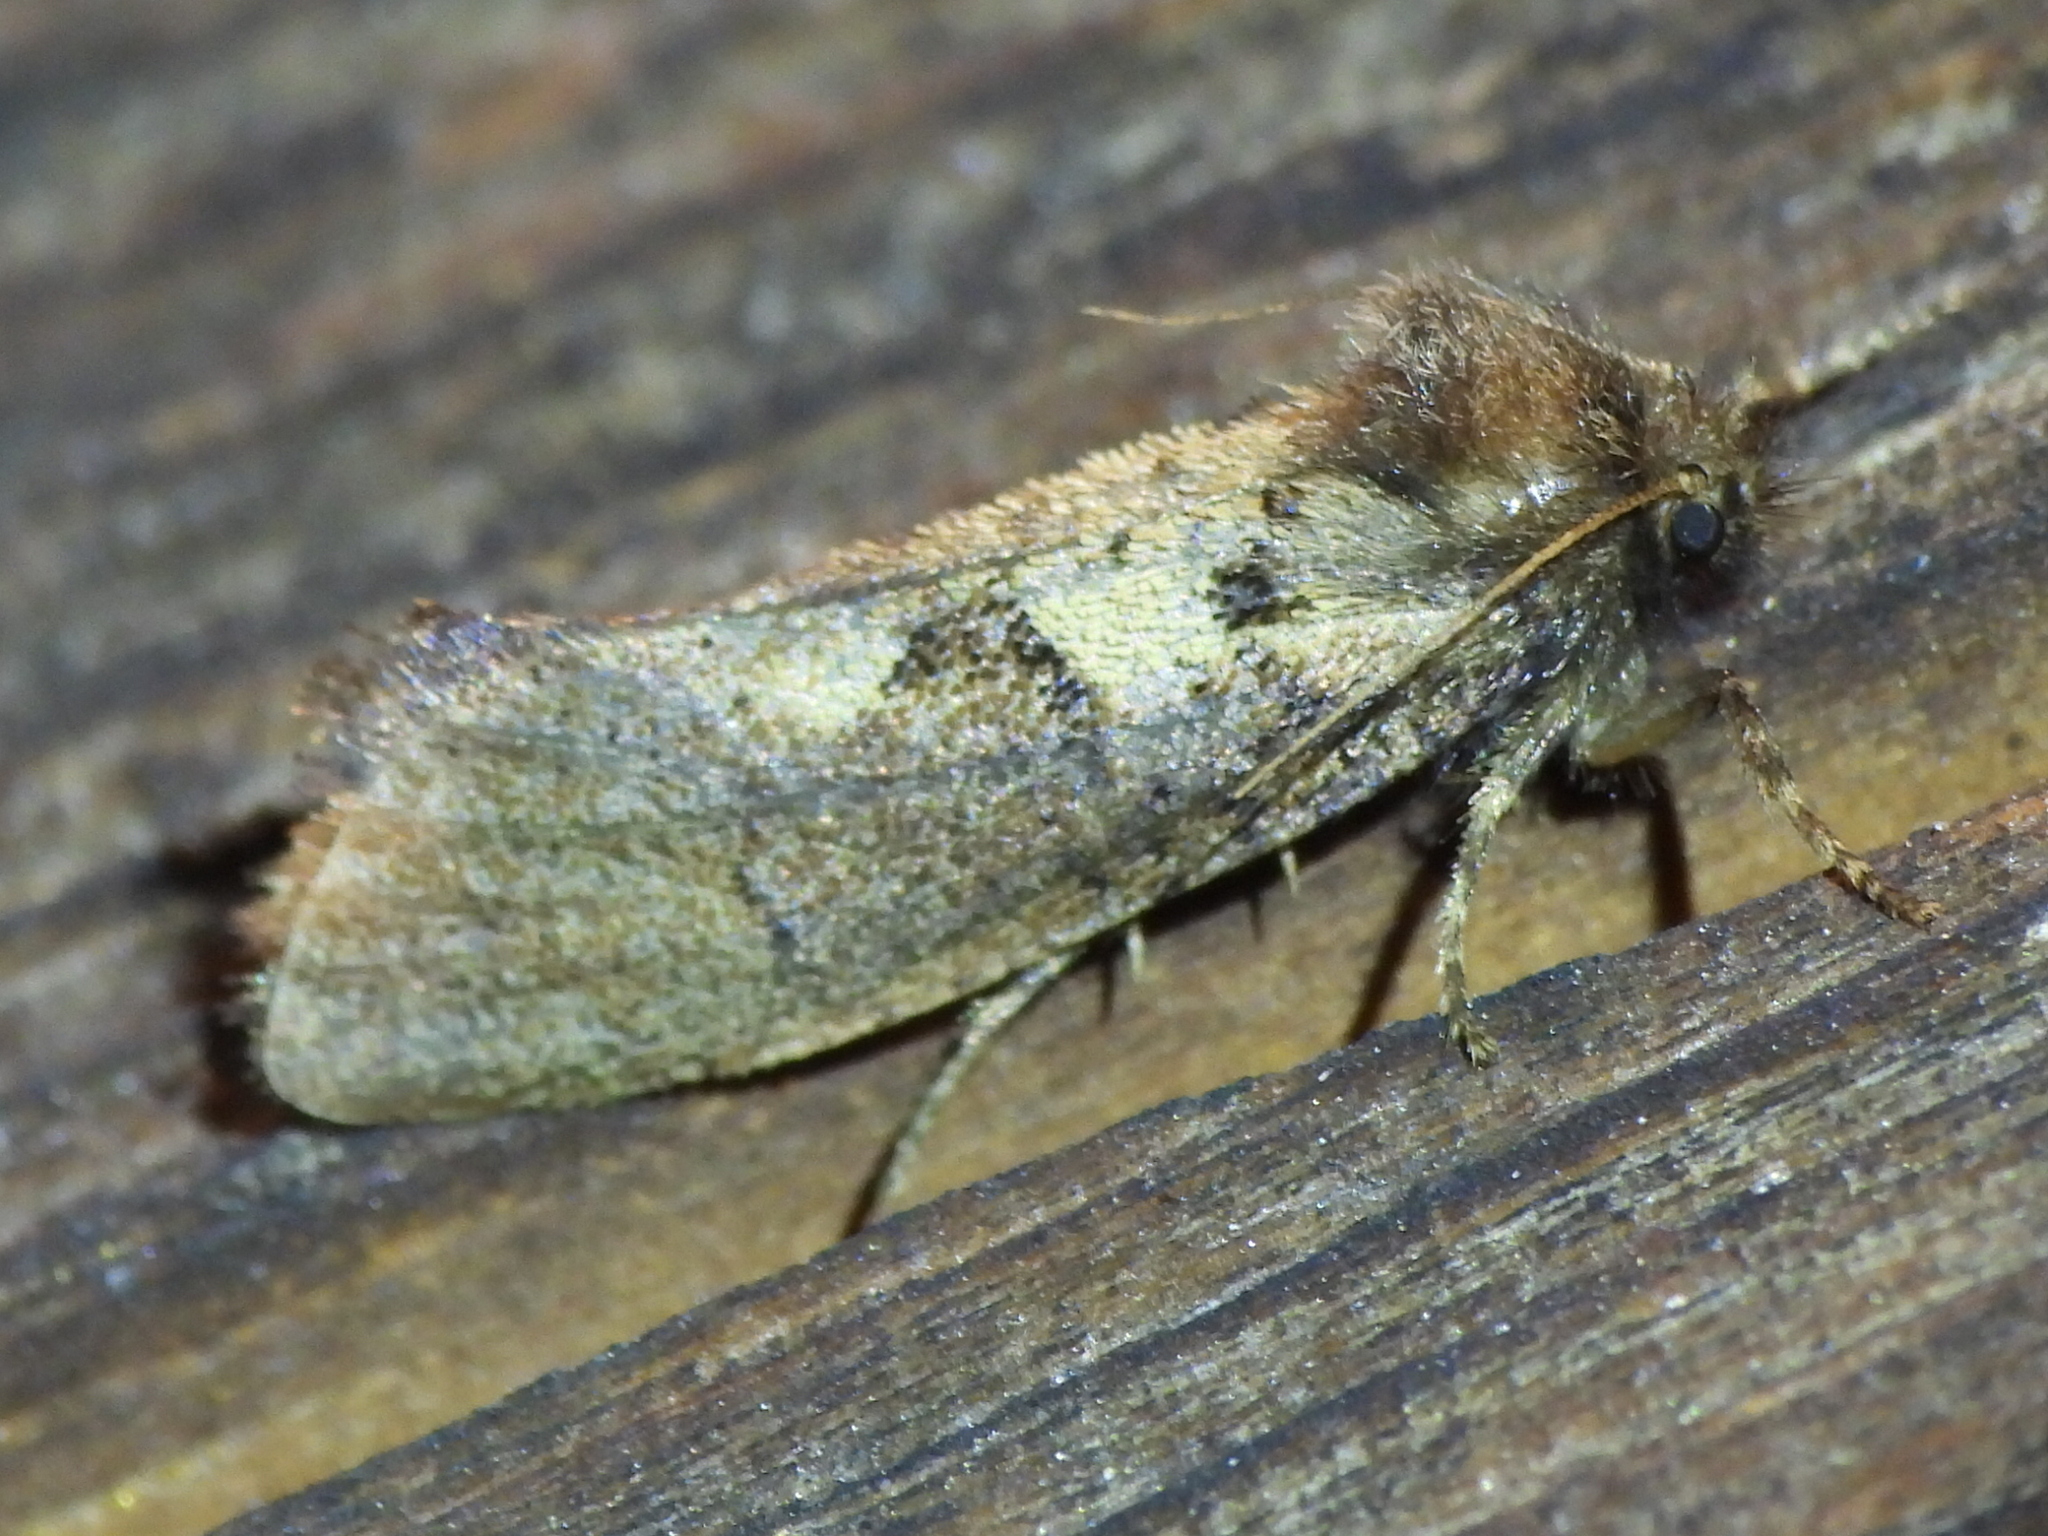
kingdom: Animalia
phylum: Arthropoda
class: Insecta
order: Lepidoptera
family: Tineidae
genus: Acrolophus
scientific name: Acrolophus mora
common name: Dark acrolophus
